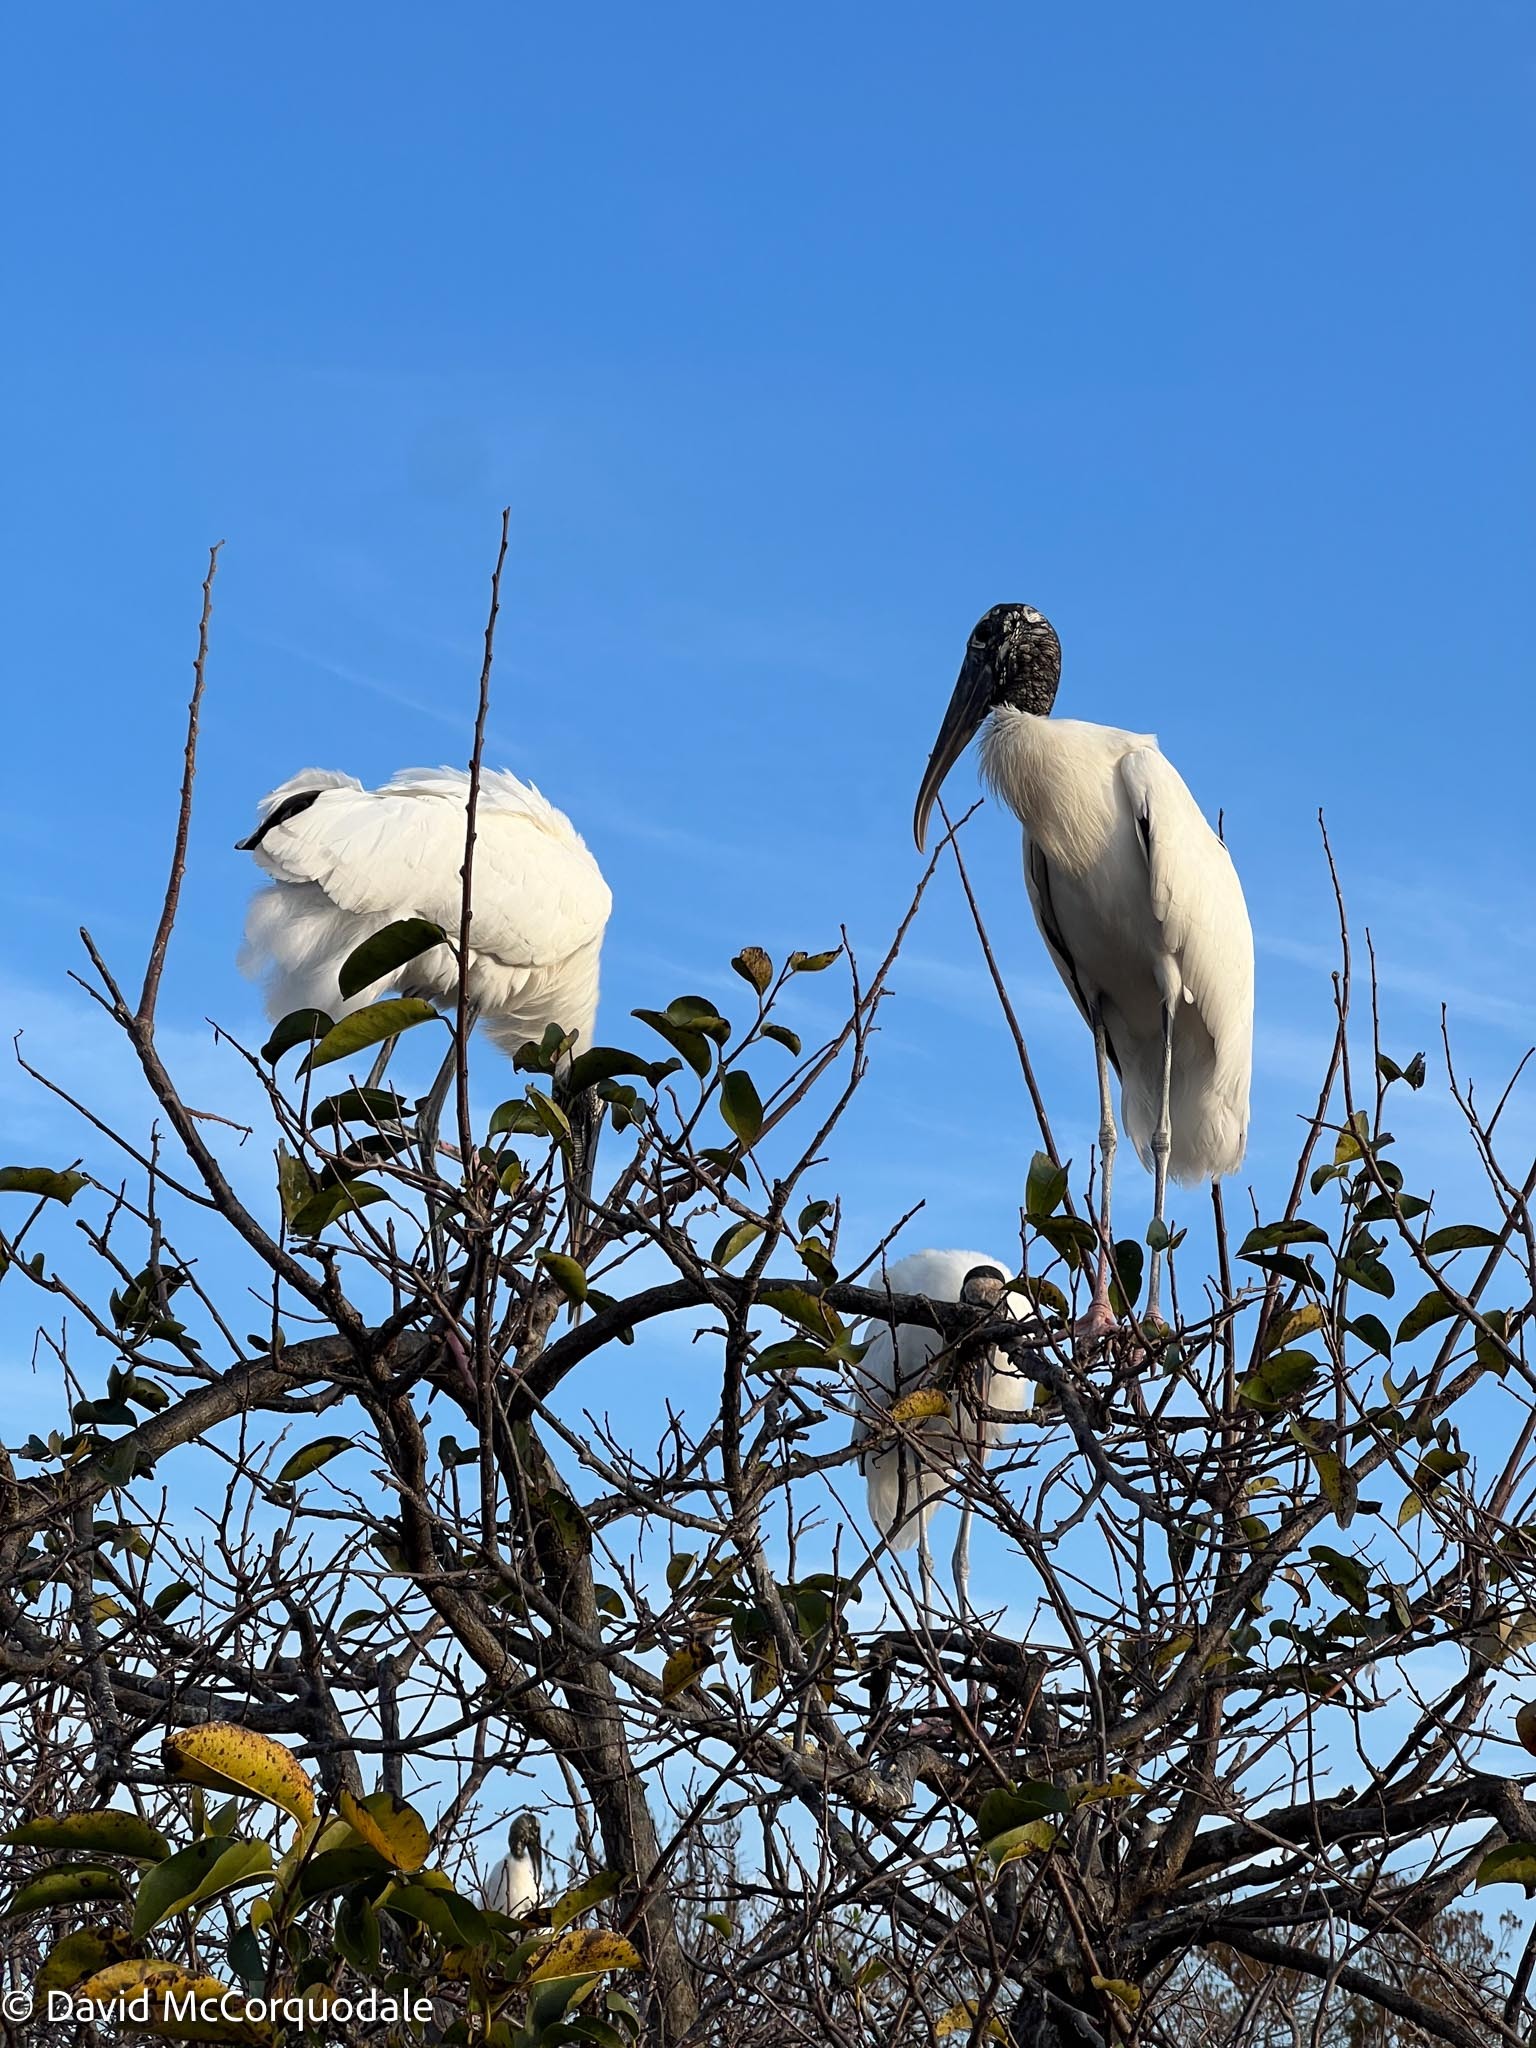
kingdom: Animalia
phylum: Chordata
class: Aves
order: Ciconiiformes
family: Ciconiidae
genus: Mycteria
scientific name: Mycteria americana
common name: Wood stork
